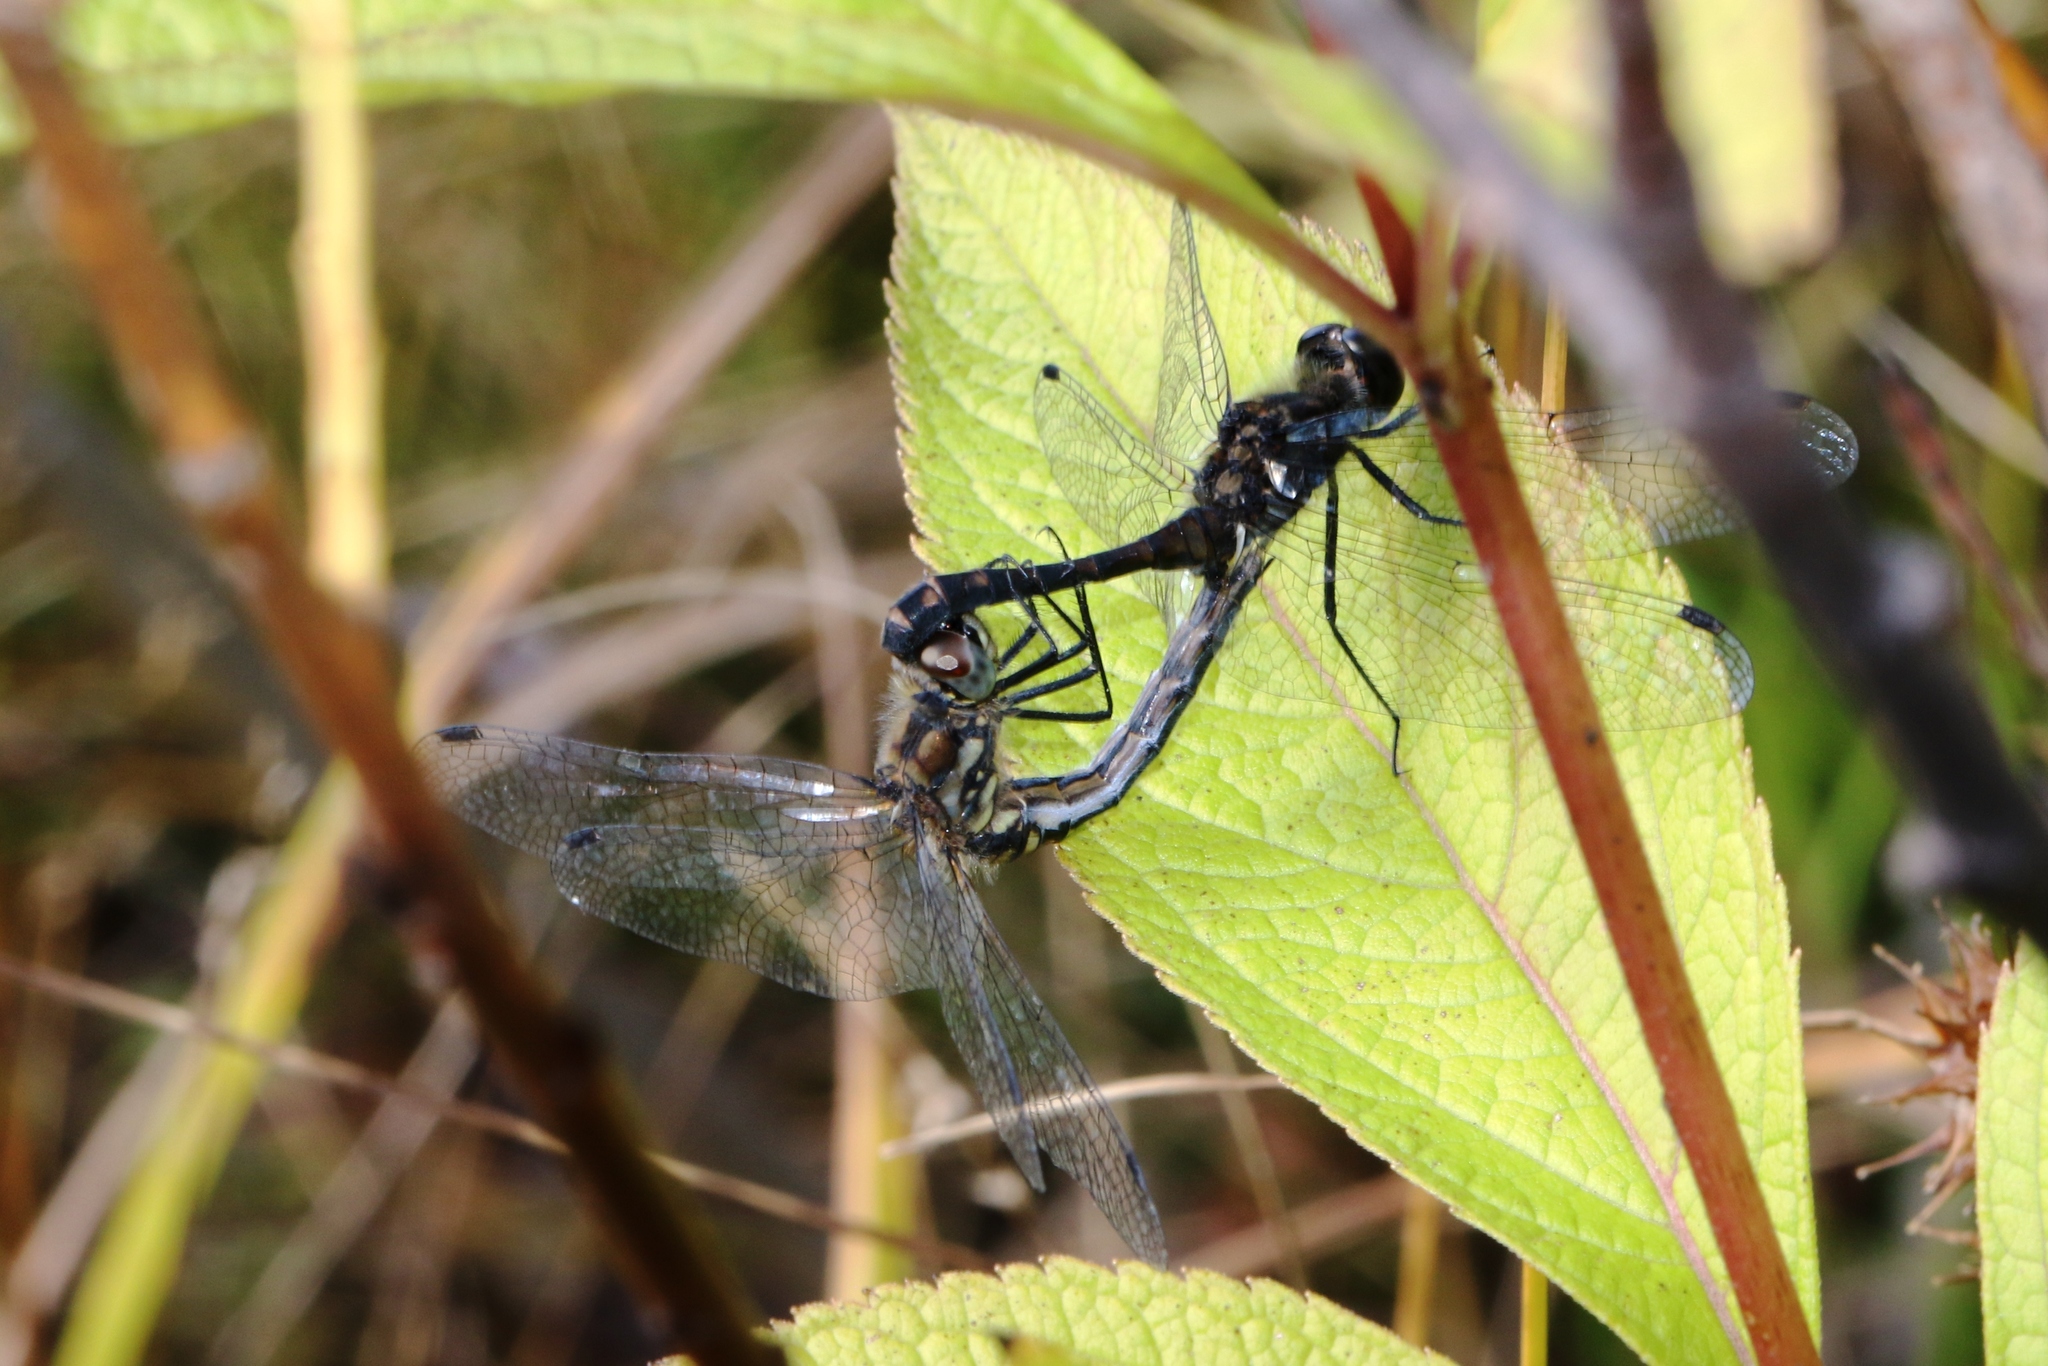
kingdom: Animalia
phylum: Arthropoda
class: Insecta
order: Odonata
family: Libellulidae
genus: Sympetrum
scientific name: Sympetrum danae
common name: Black darter
